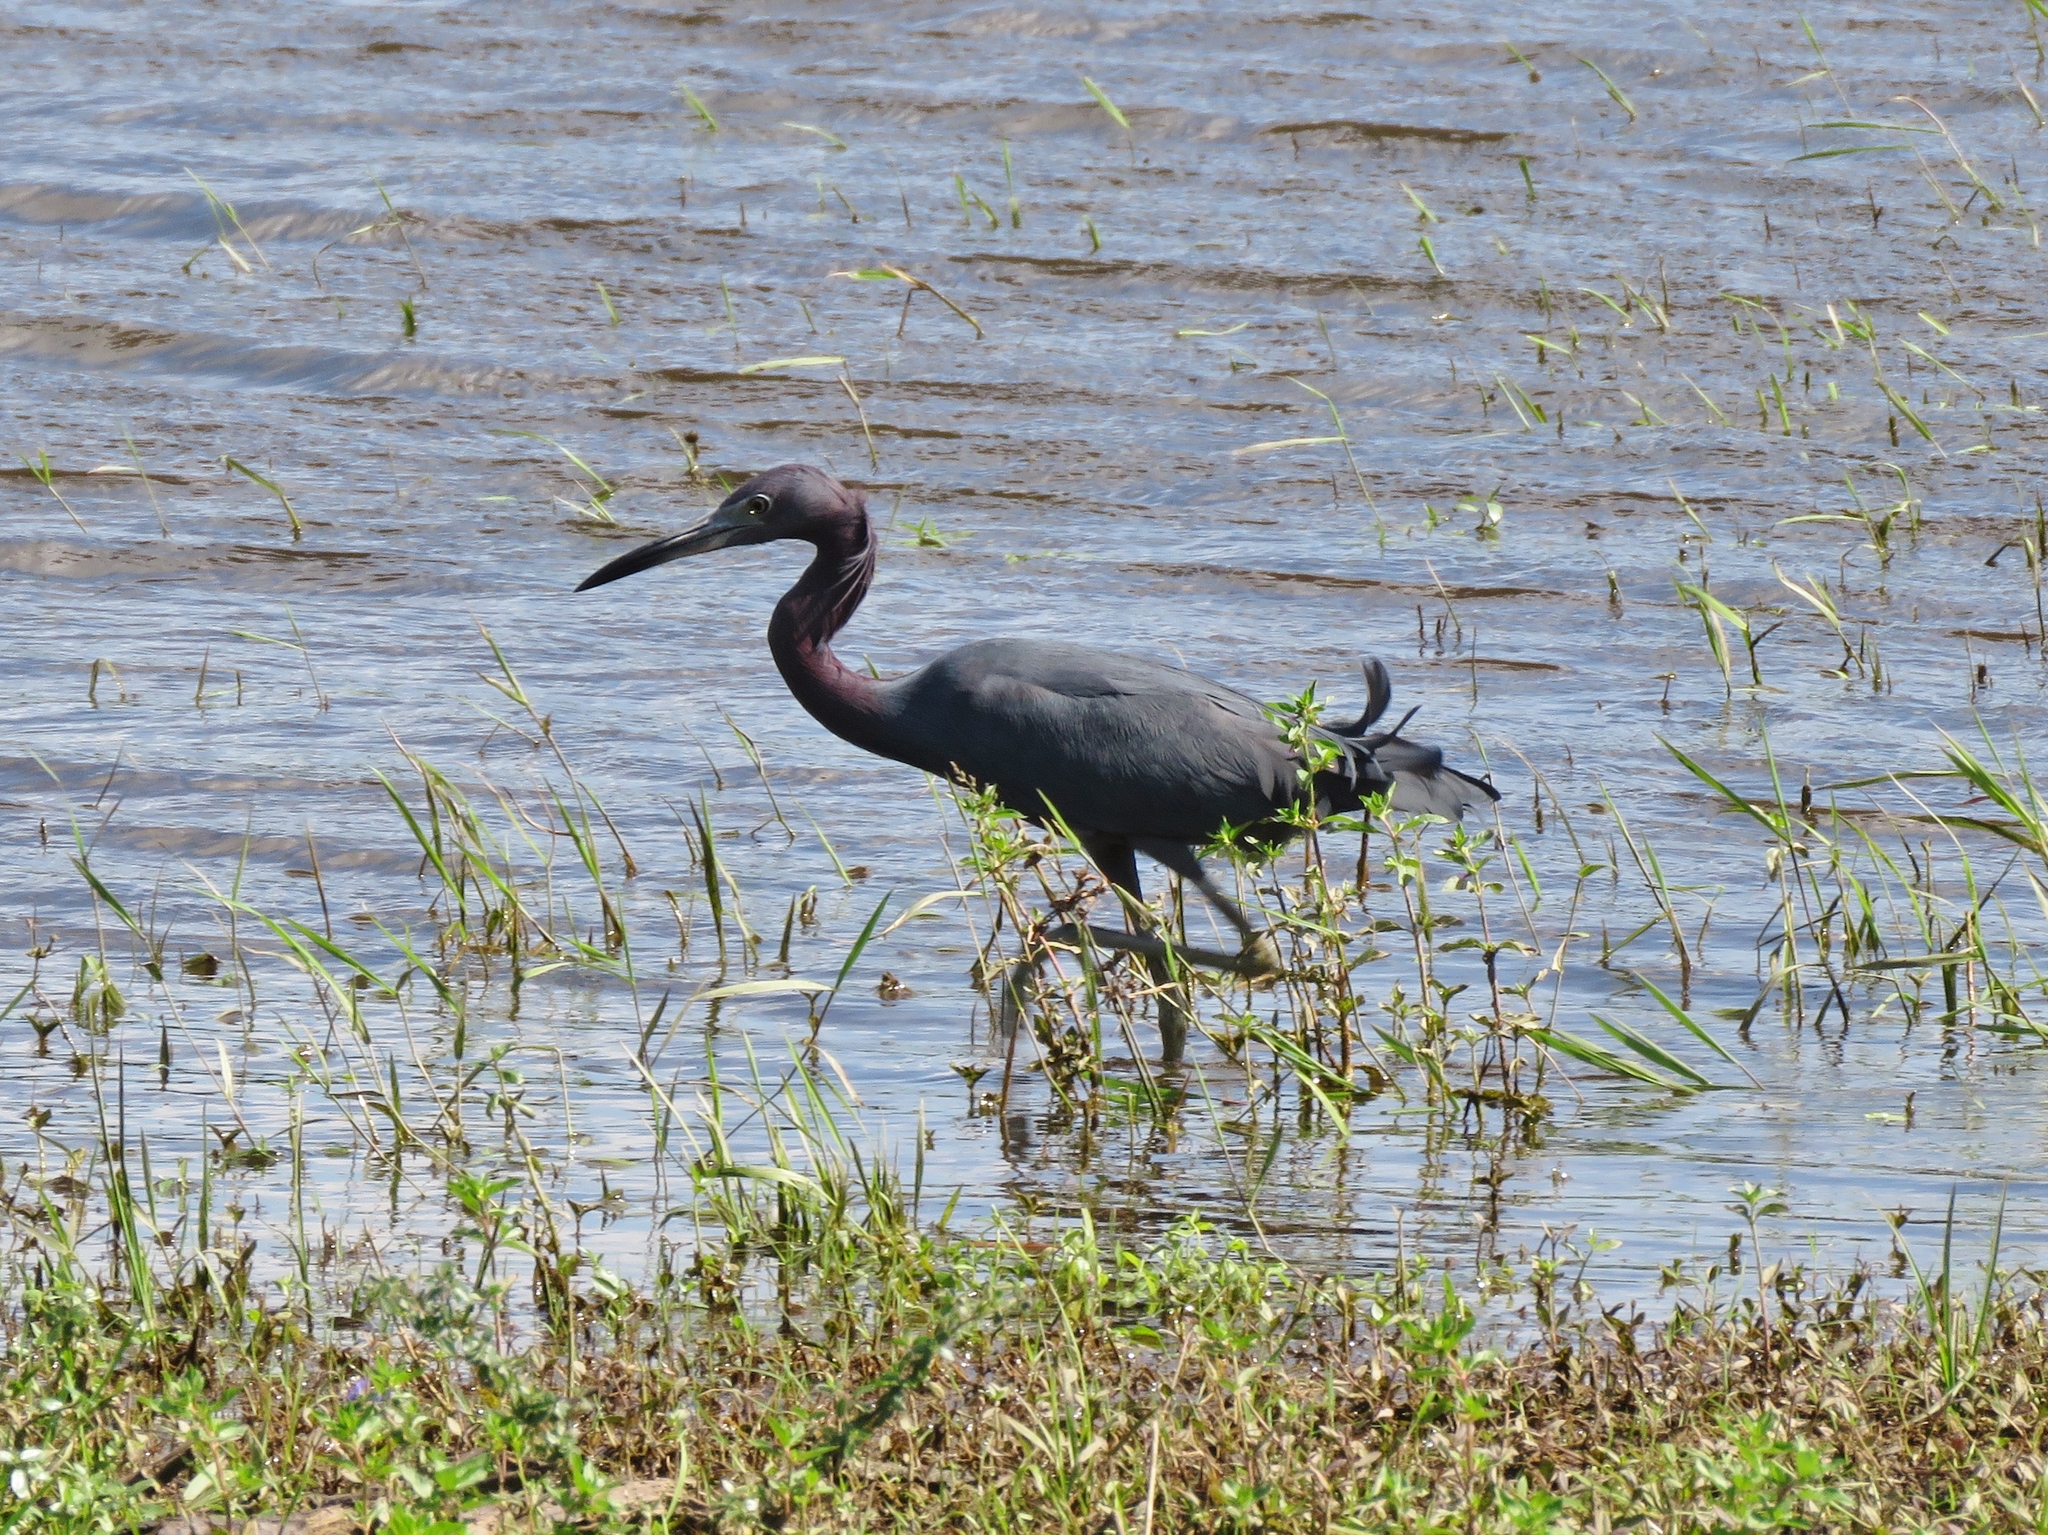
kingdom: Animalia
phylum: Chordata
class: Aves
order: Pelecaniformes
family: Ardeidae
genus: Egretta
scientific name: Egretta caerulea
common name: Little blue heron
